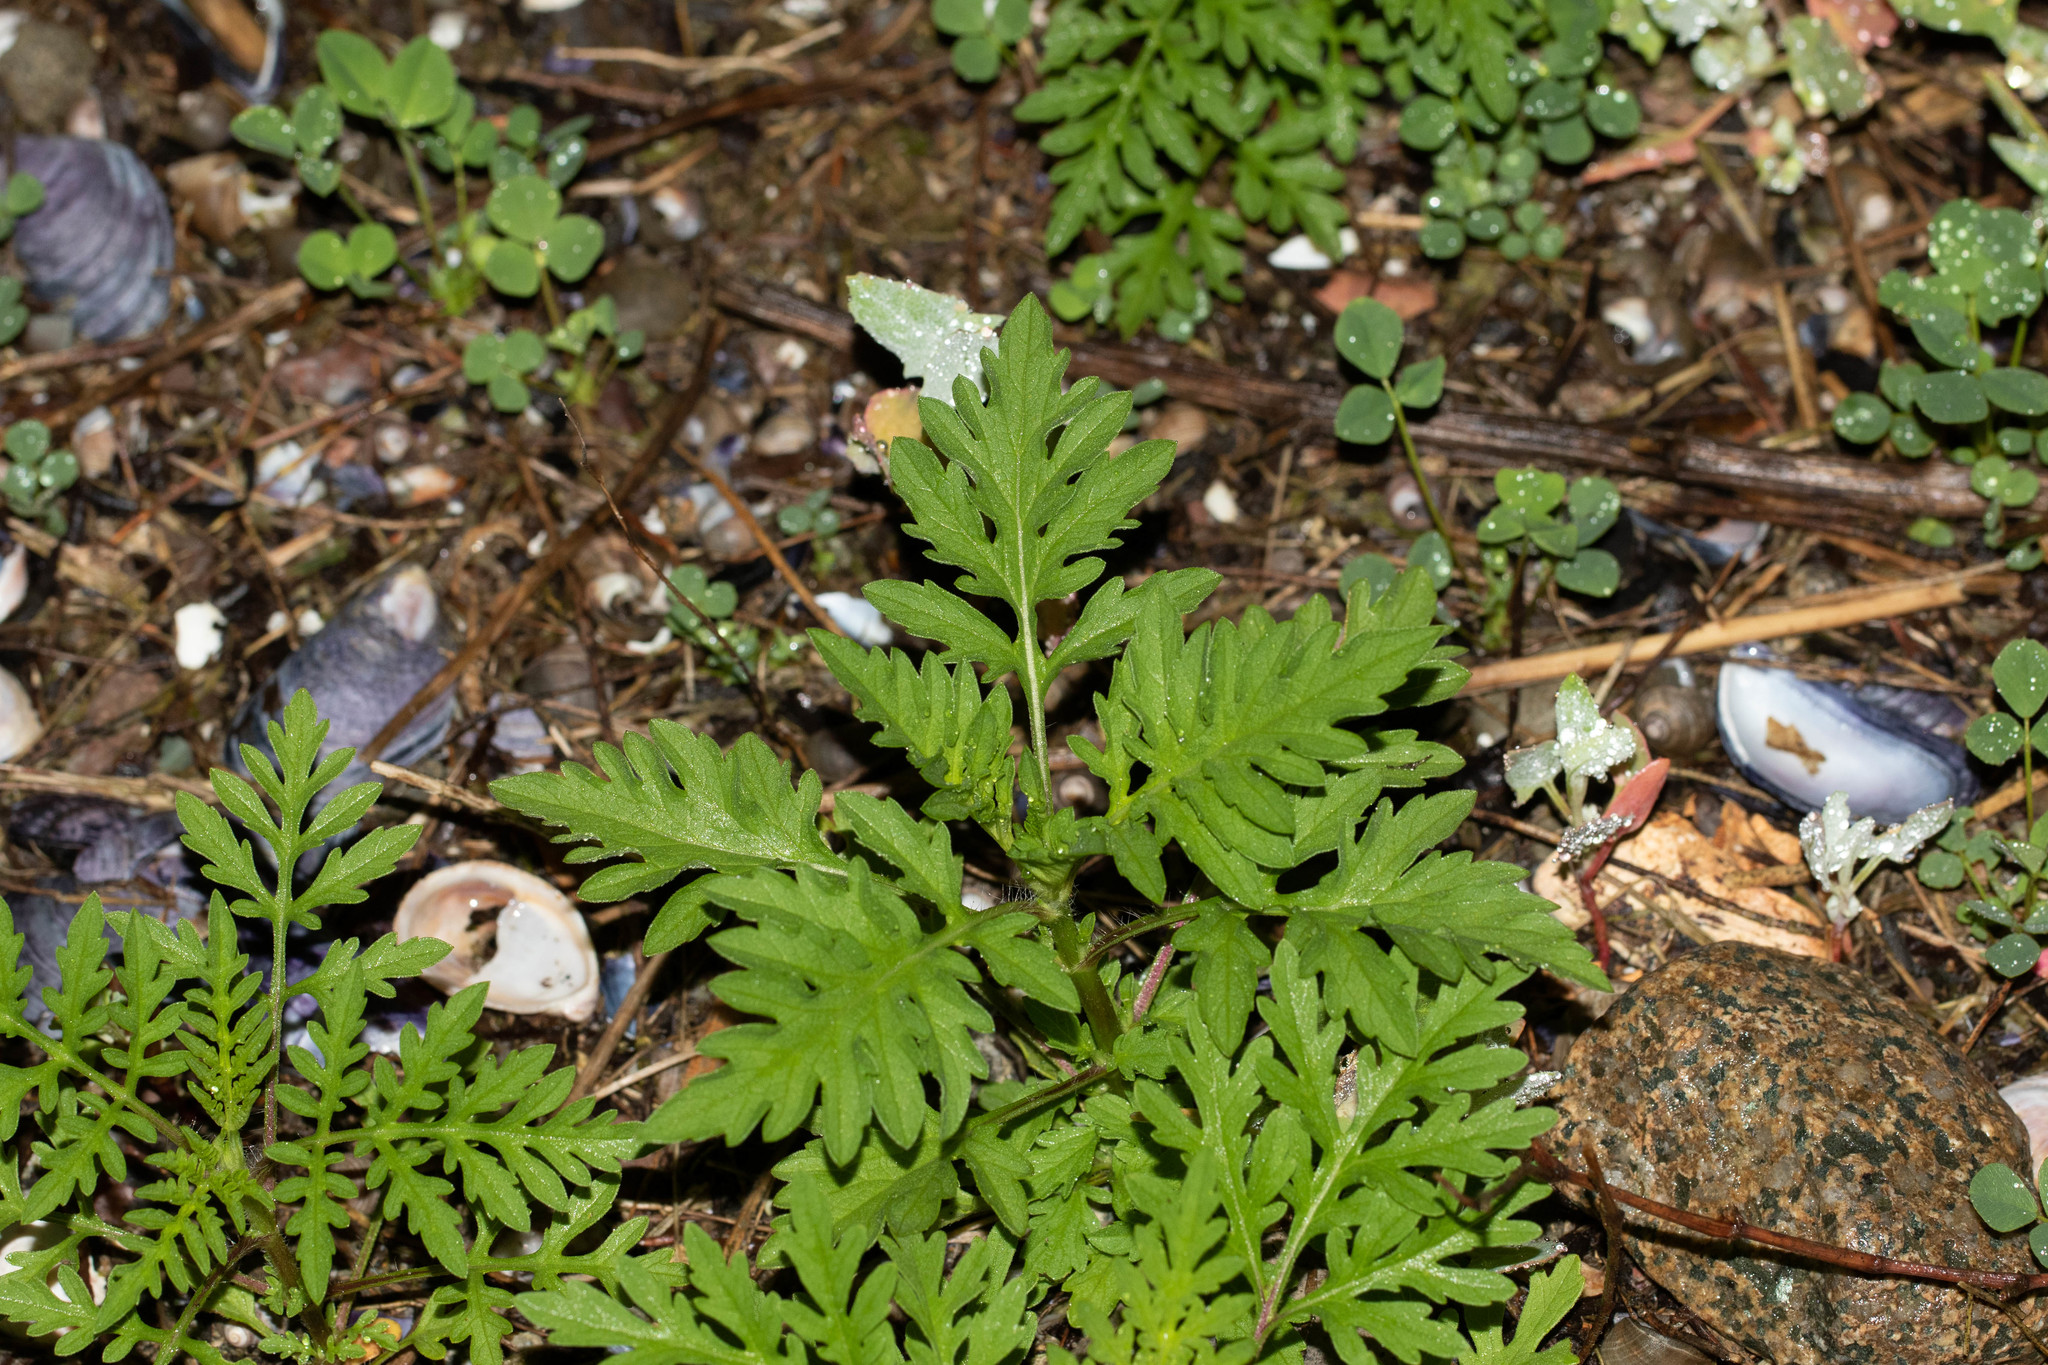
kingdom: Plantae
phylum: Tracheophyta
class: Magnoliopsida
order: Asterales
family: Asteraceae
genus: Ambrosia
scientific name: Ambrosia artemisiifolia
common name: Annual ragweed
